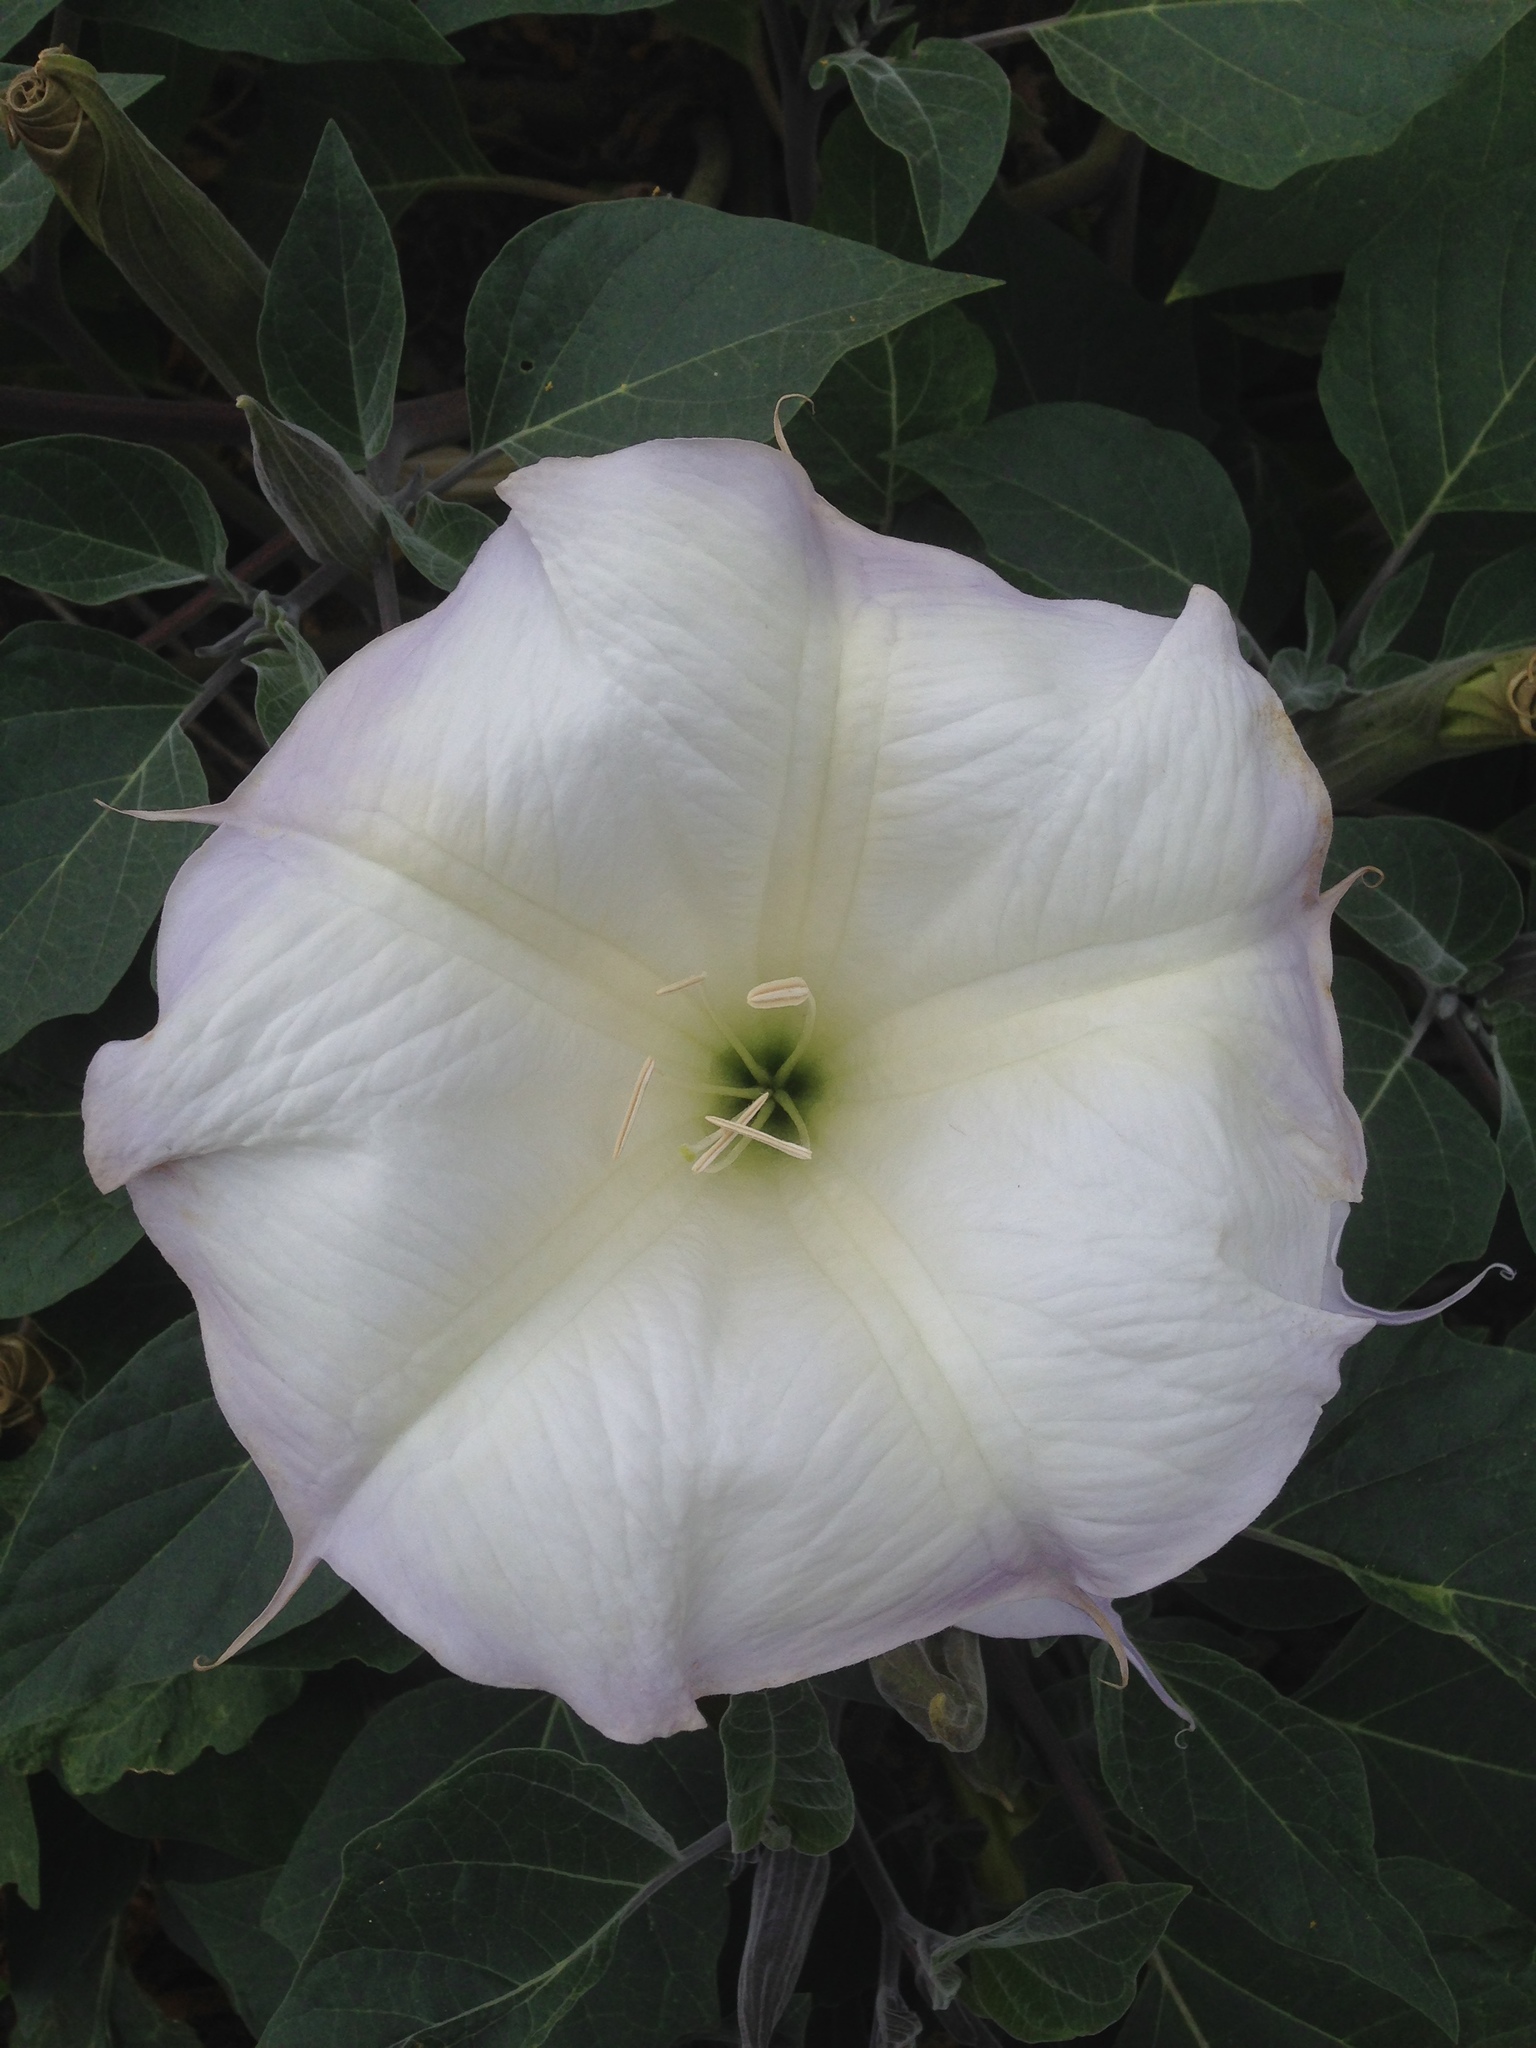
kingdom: Plantae
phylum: Tracheophyta
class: Magnoliopsida
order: Solanales
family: Solanaceae
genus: Datura
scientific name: Datura wrightii
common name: Sacred thorn-apple
